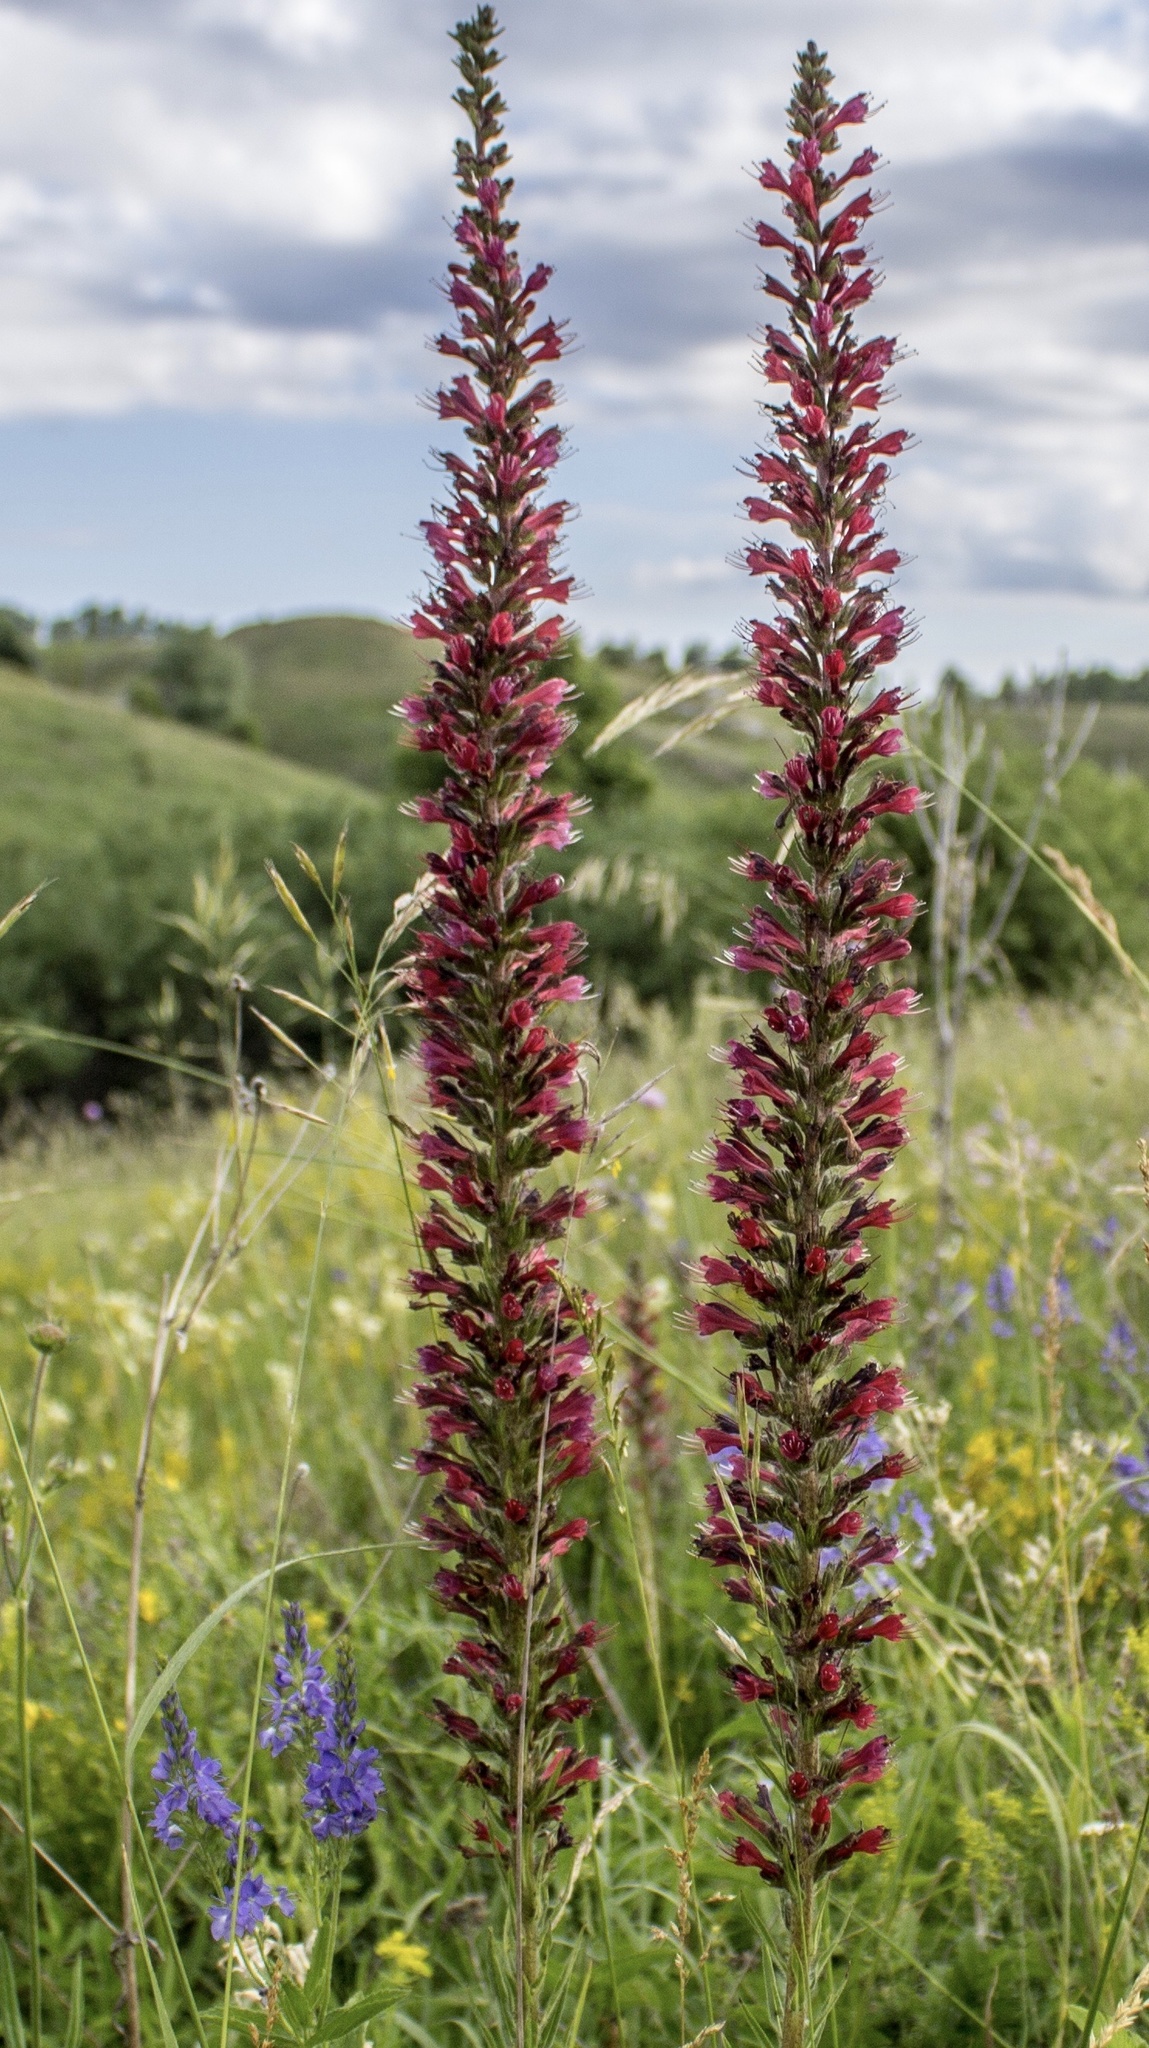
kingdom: Plantae
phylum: Tracheophyta
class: Magnoliopsida
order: Boraginales
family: Boraginaceae
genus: Pontechium
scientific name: Pontechium maculatum
